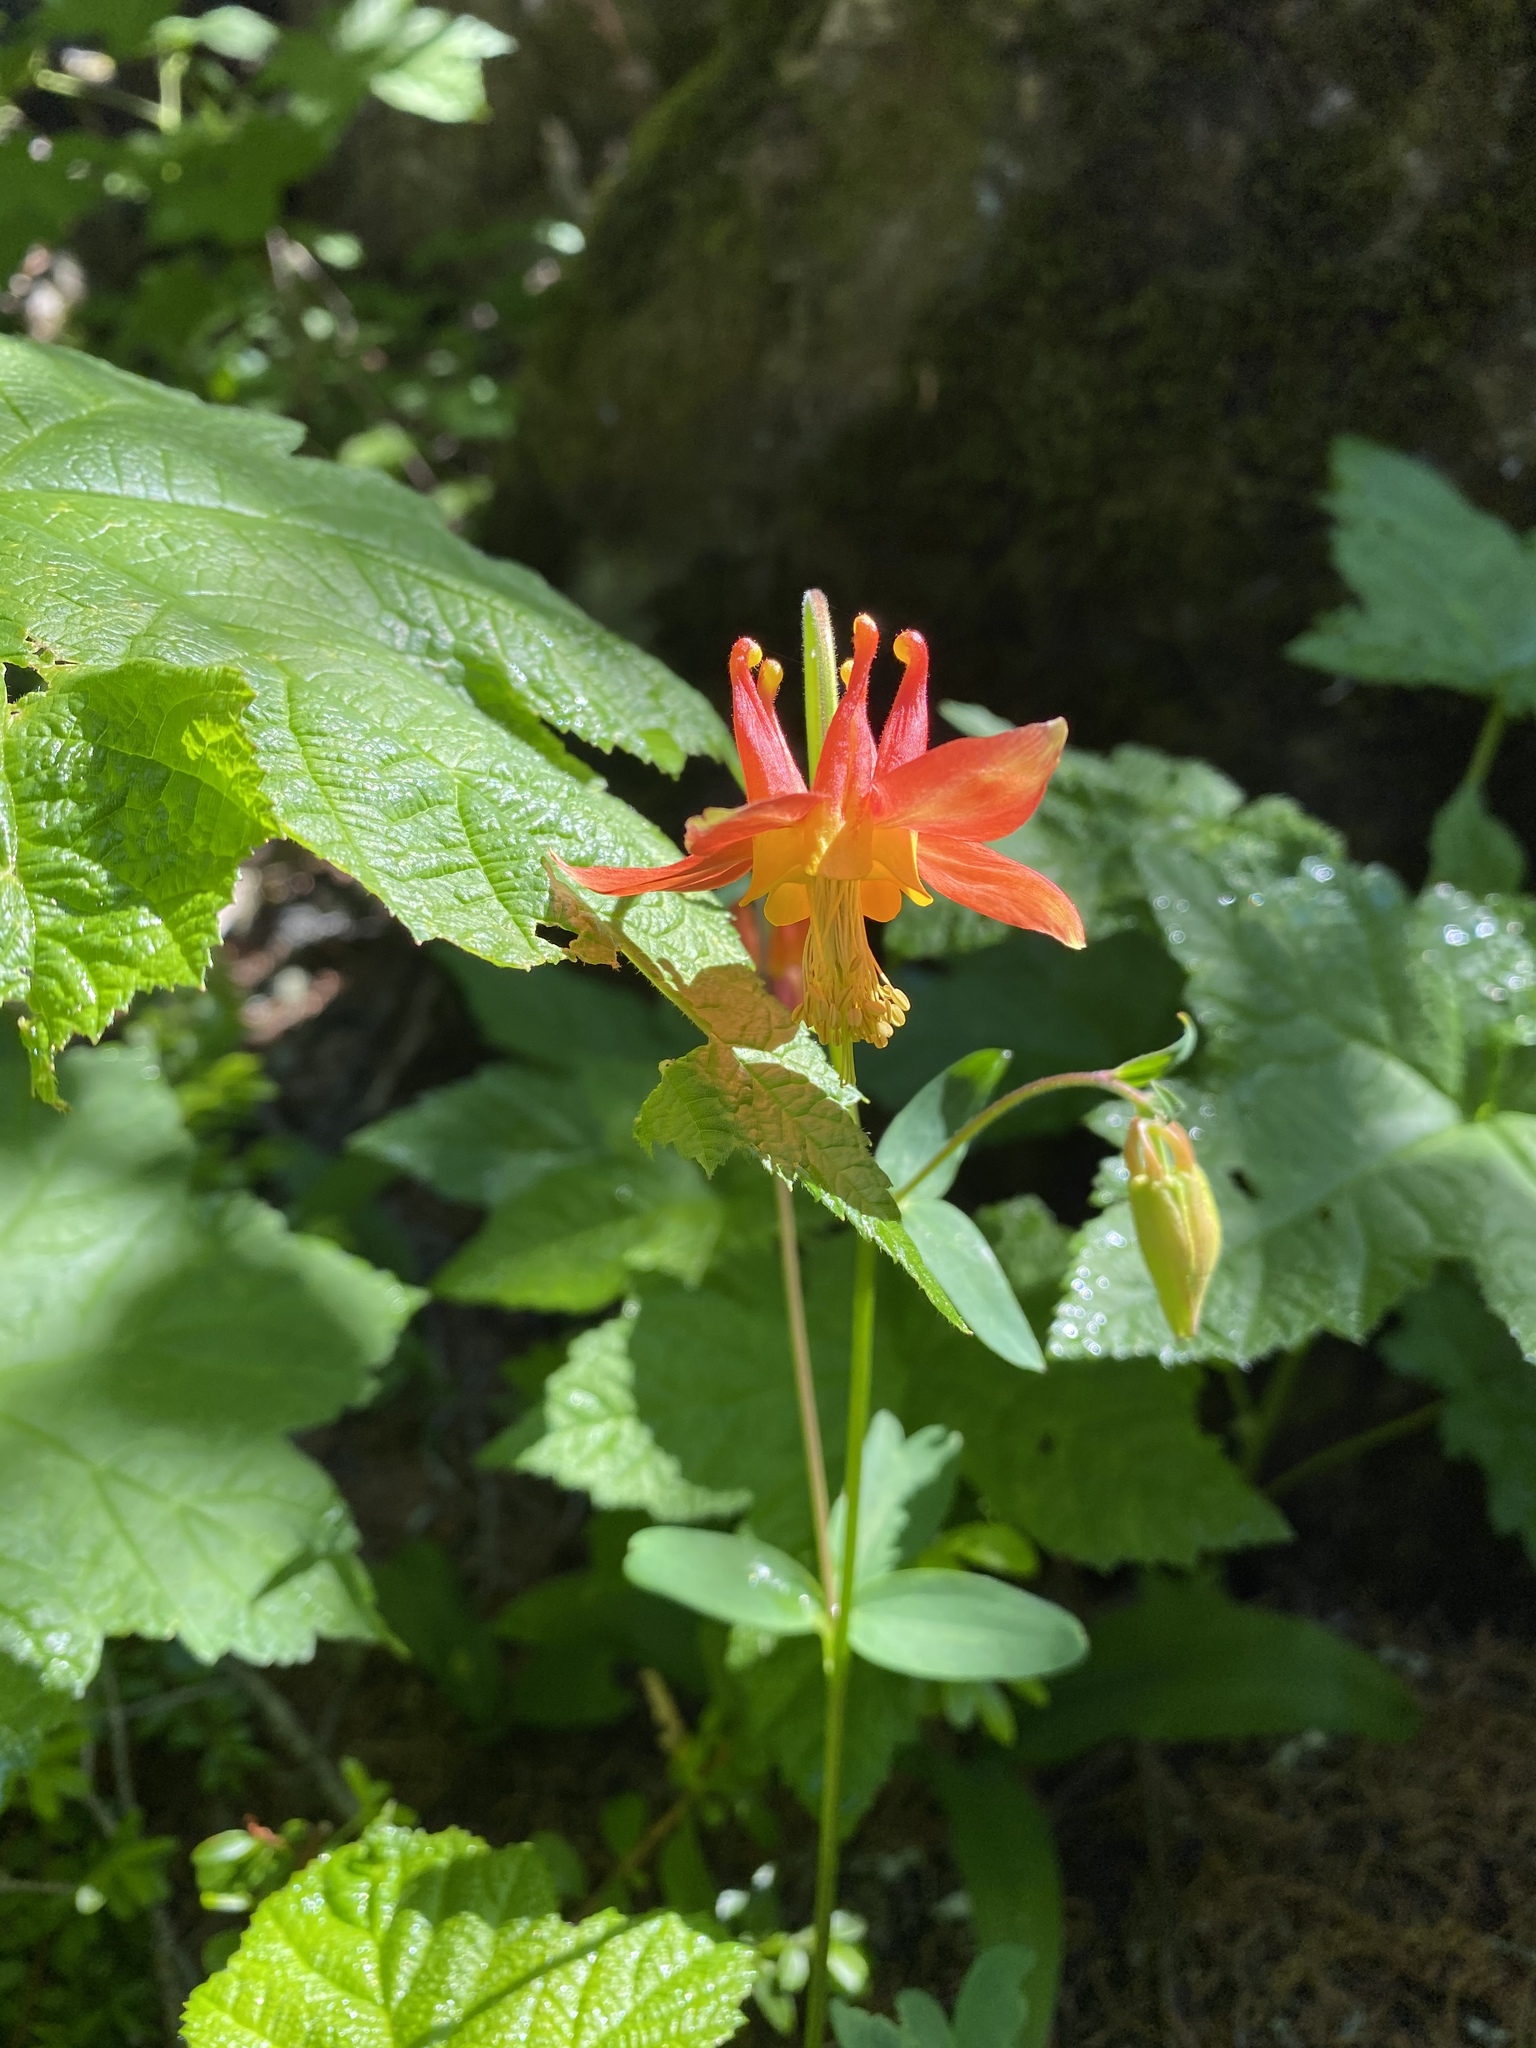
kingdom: Plantae
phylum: Tracheophyta
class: Magnoliopsida
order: Ranunculales
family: Ranunculaceae
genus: Aquilegia
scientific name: Aquilegia formosa
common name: Sitka columbine
